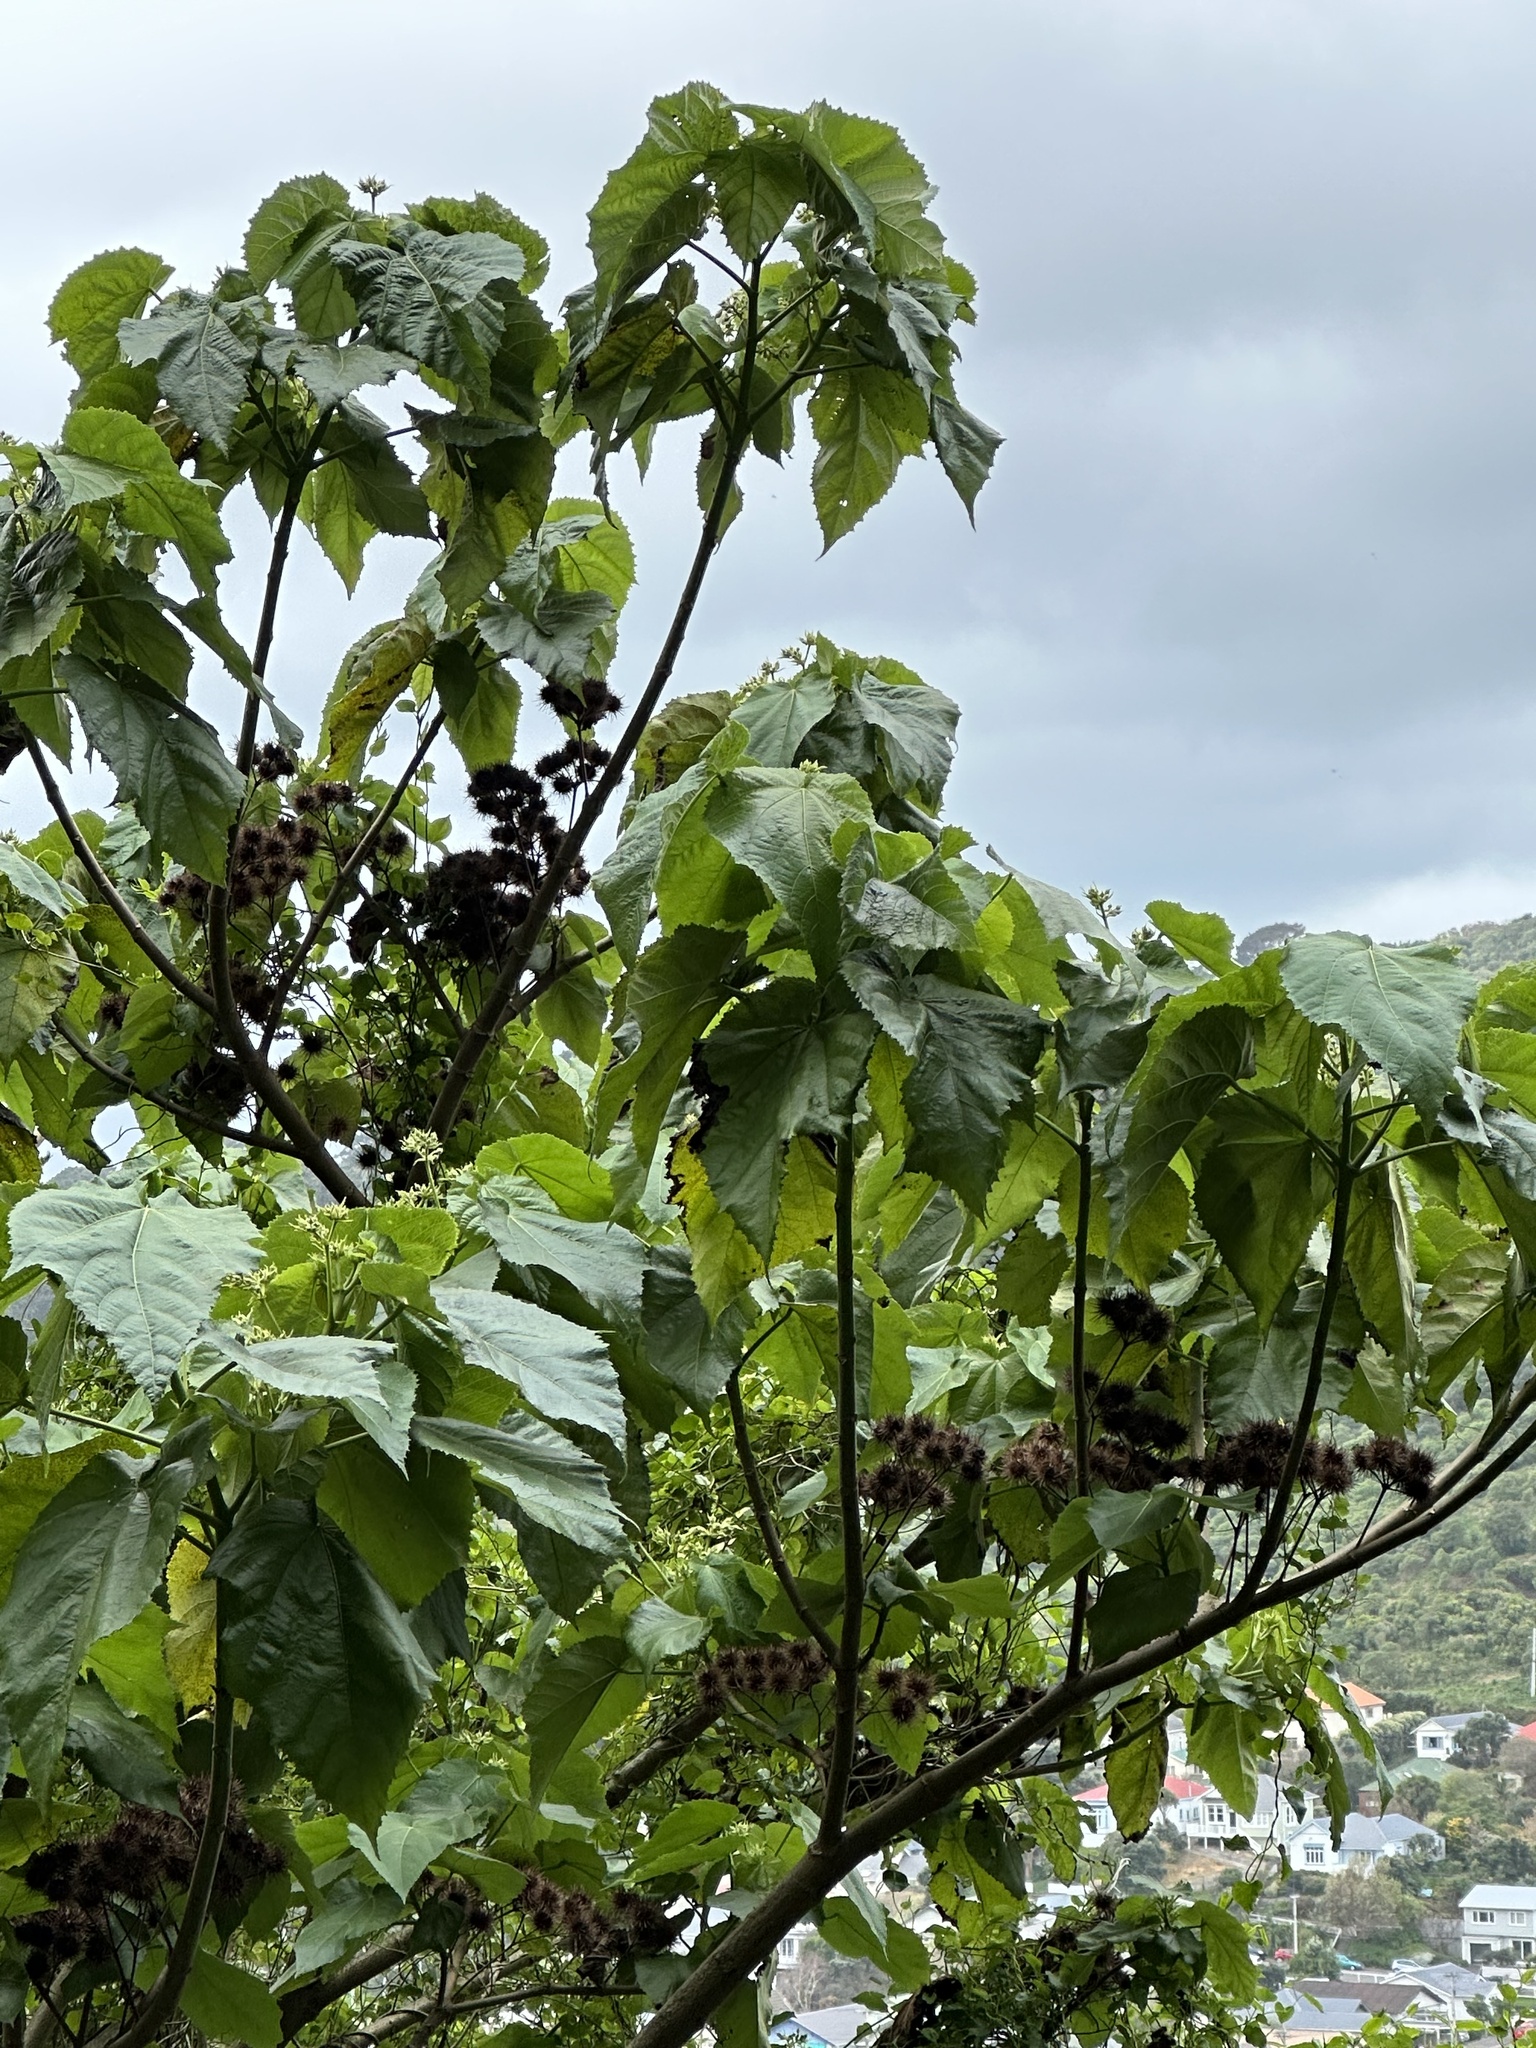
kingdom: Plantae
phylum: Tracheophyta
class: Magnoliopsida
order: Malvales
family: Malvaceae
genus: Entelea
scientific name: Entelea arborescens
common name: New zealand-mulberry
